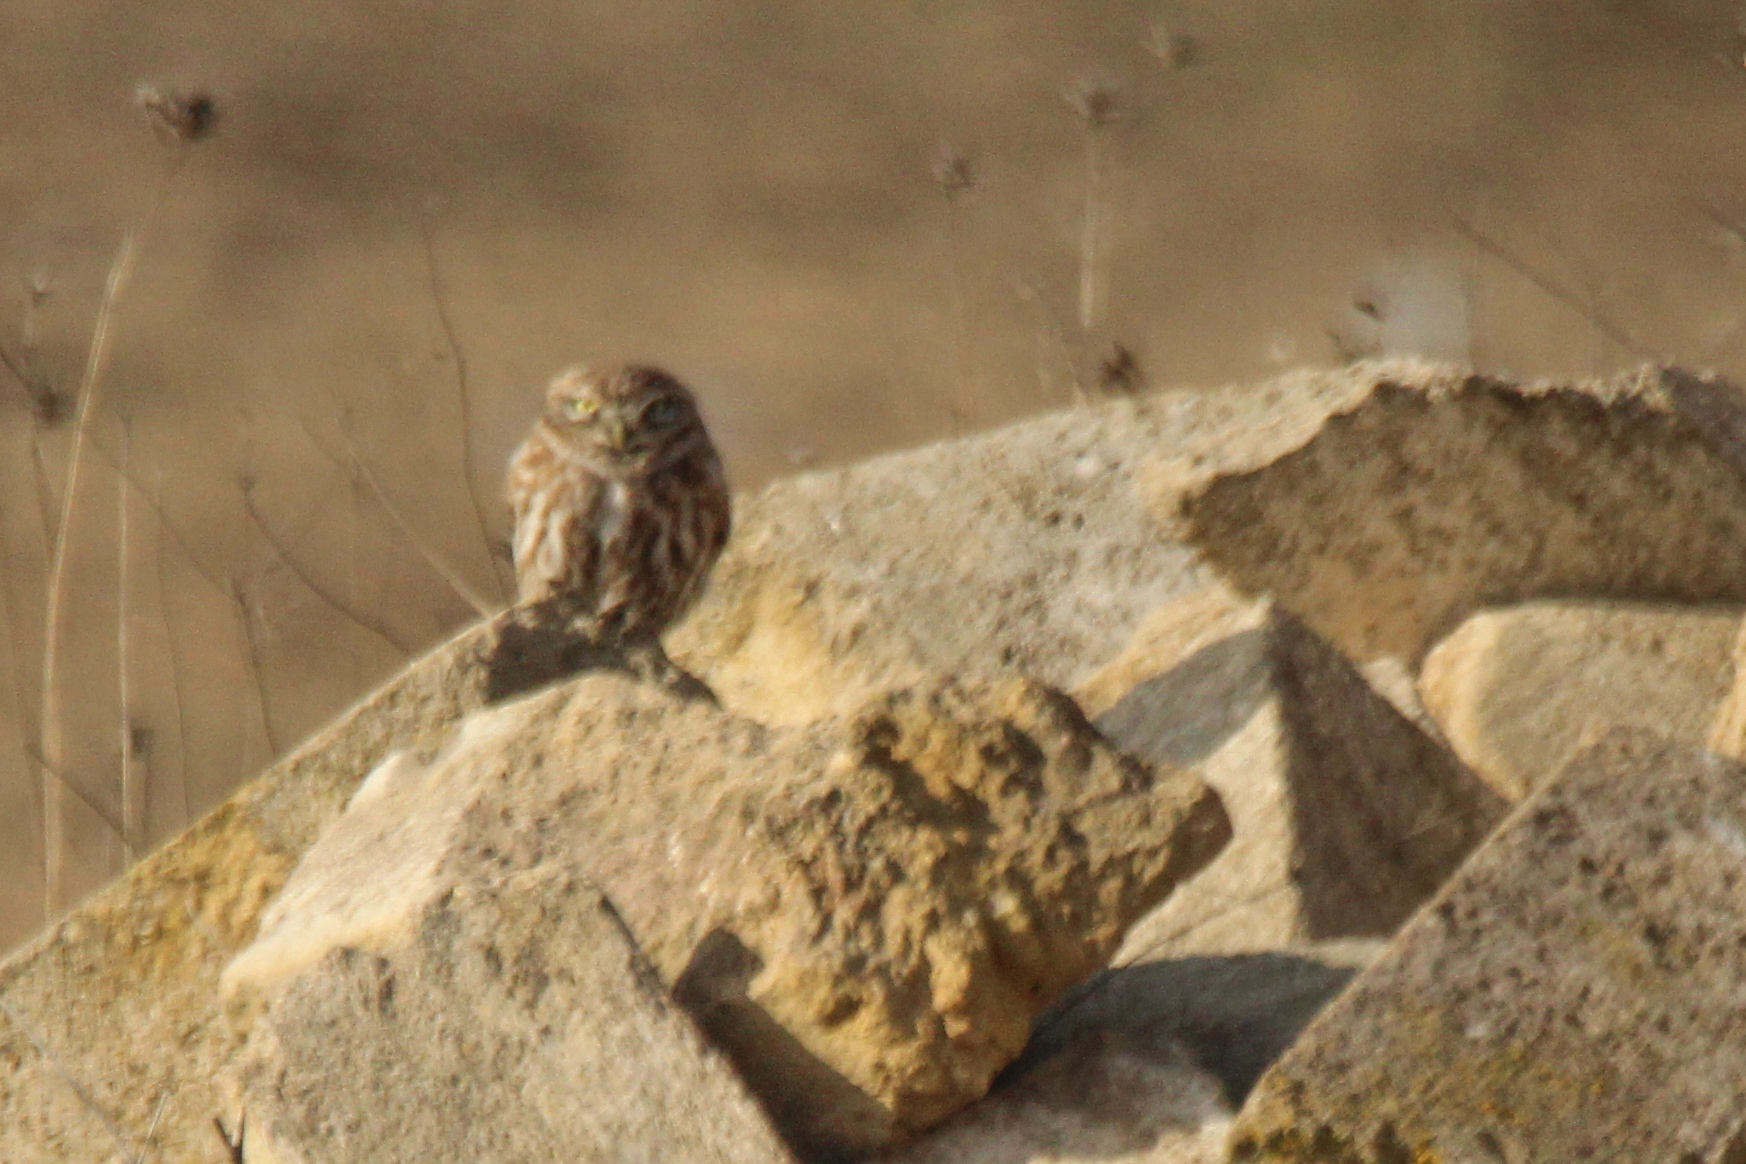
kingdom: Animalia
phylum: Chordata
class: Aves
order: Strigiformes
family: Strigidae
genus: Athene
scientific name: Athene noctua
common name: Little owl
